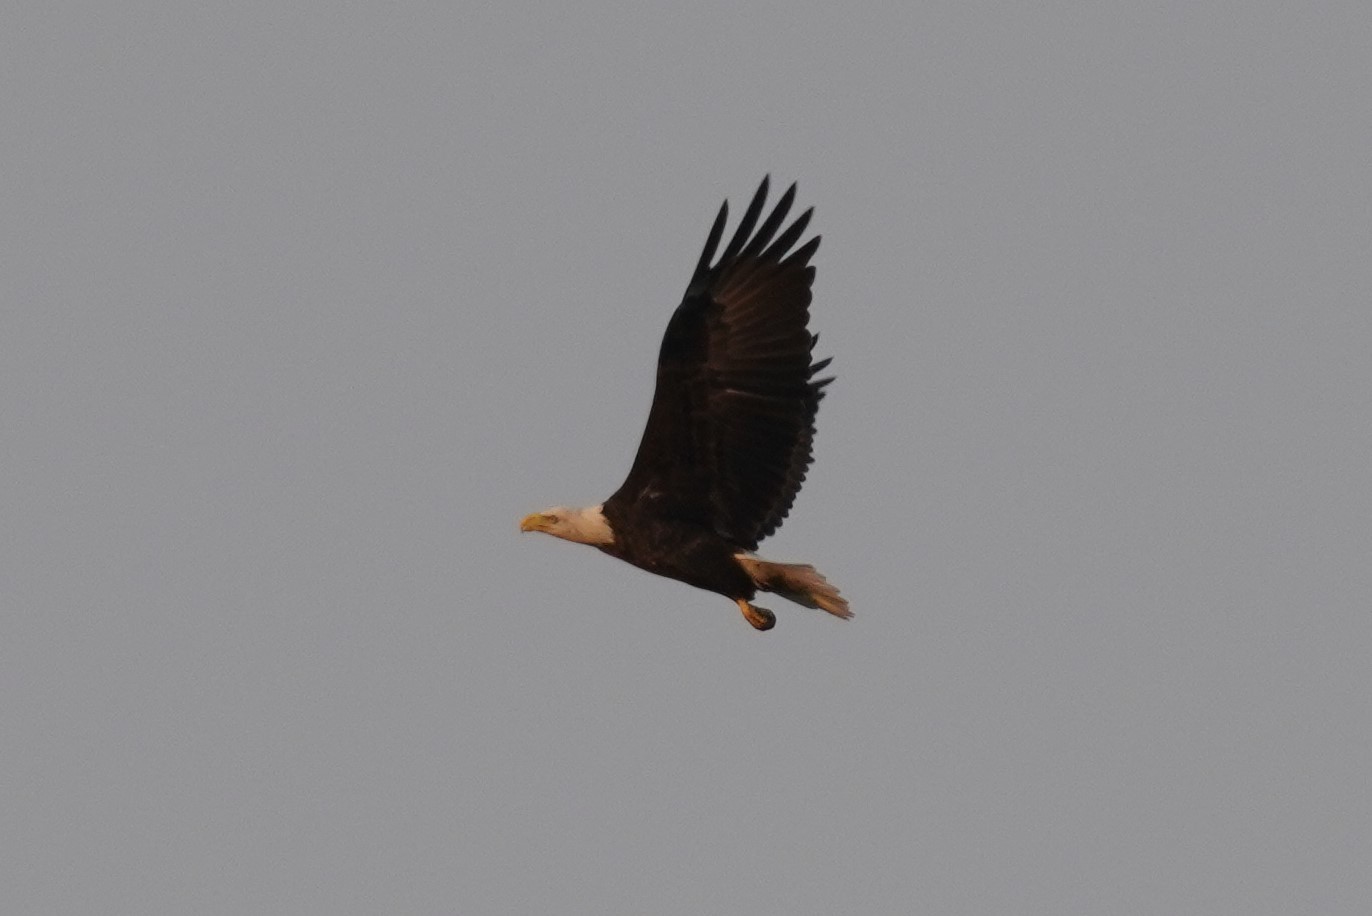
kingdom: Animalia
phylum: Chordata
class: Aves
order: Accipitriformes
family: Accipitridae
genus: Haliaeetus
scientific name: Haliaeetus leucocephalus
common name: Bald eagle
